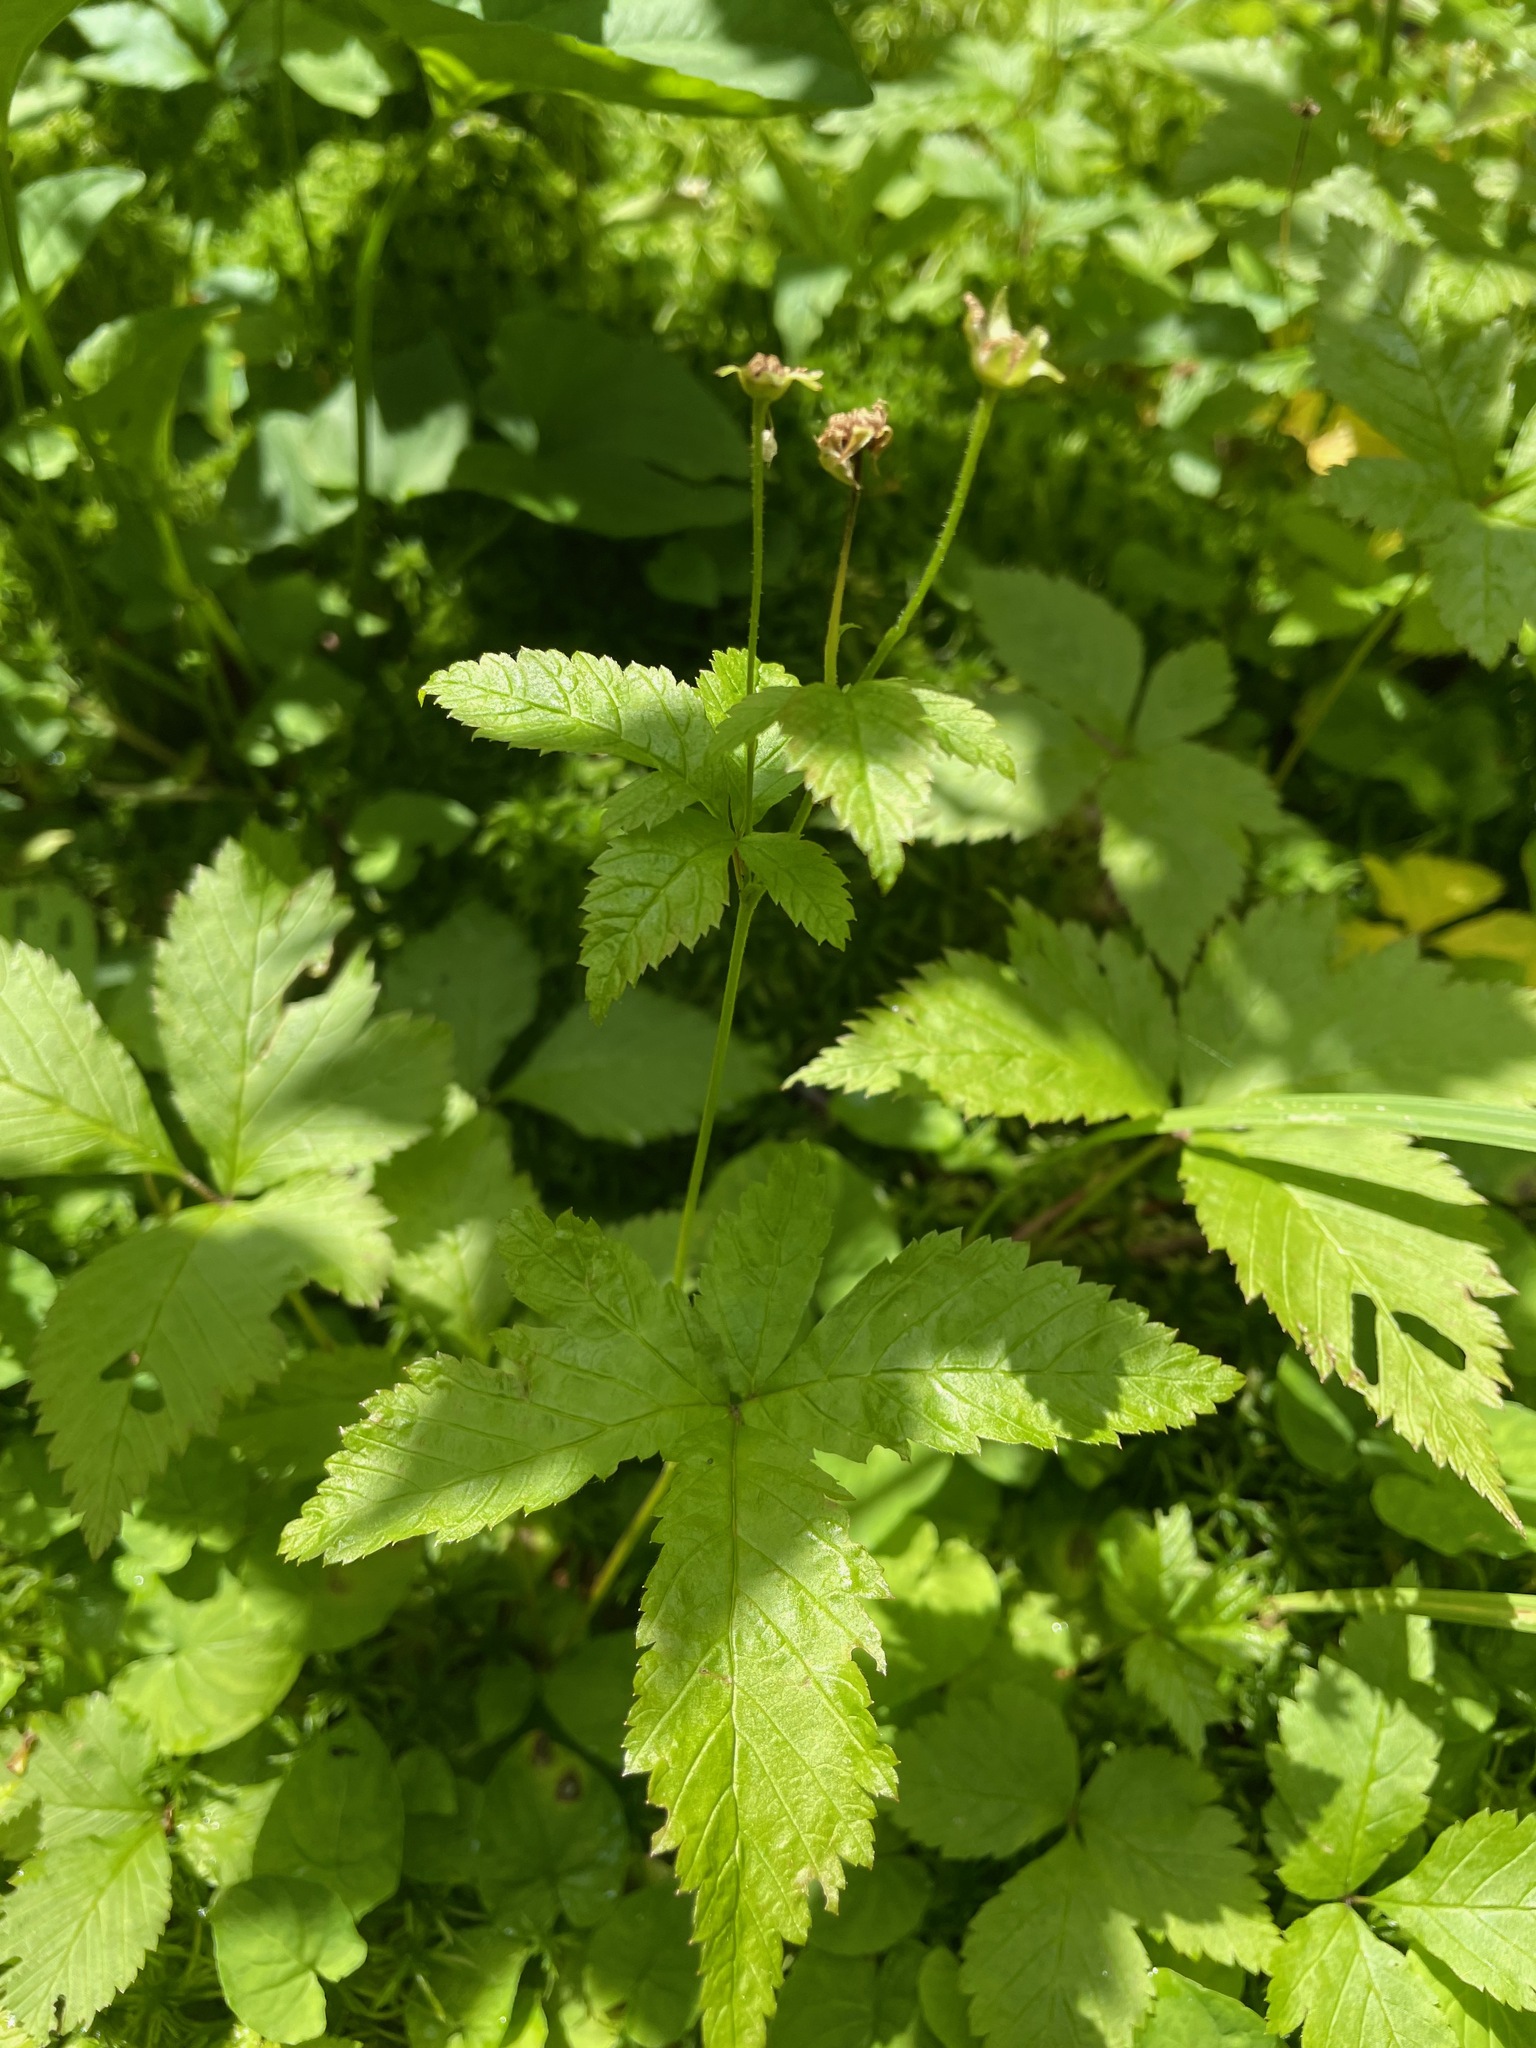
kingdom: Plantae
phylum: Tracheophyta
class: Magnoliopsida
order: Rosales
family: Rosaceae
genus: Rubus
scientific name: Rubus pubescens
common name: Dwarf raspberry
